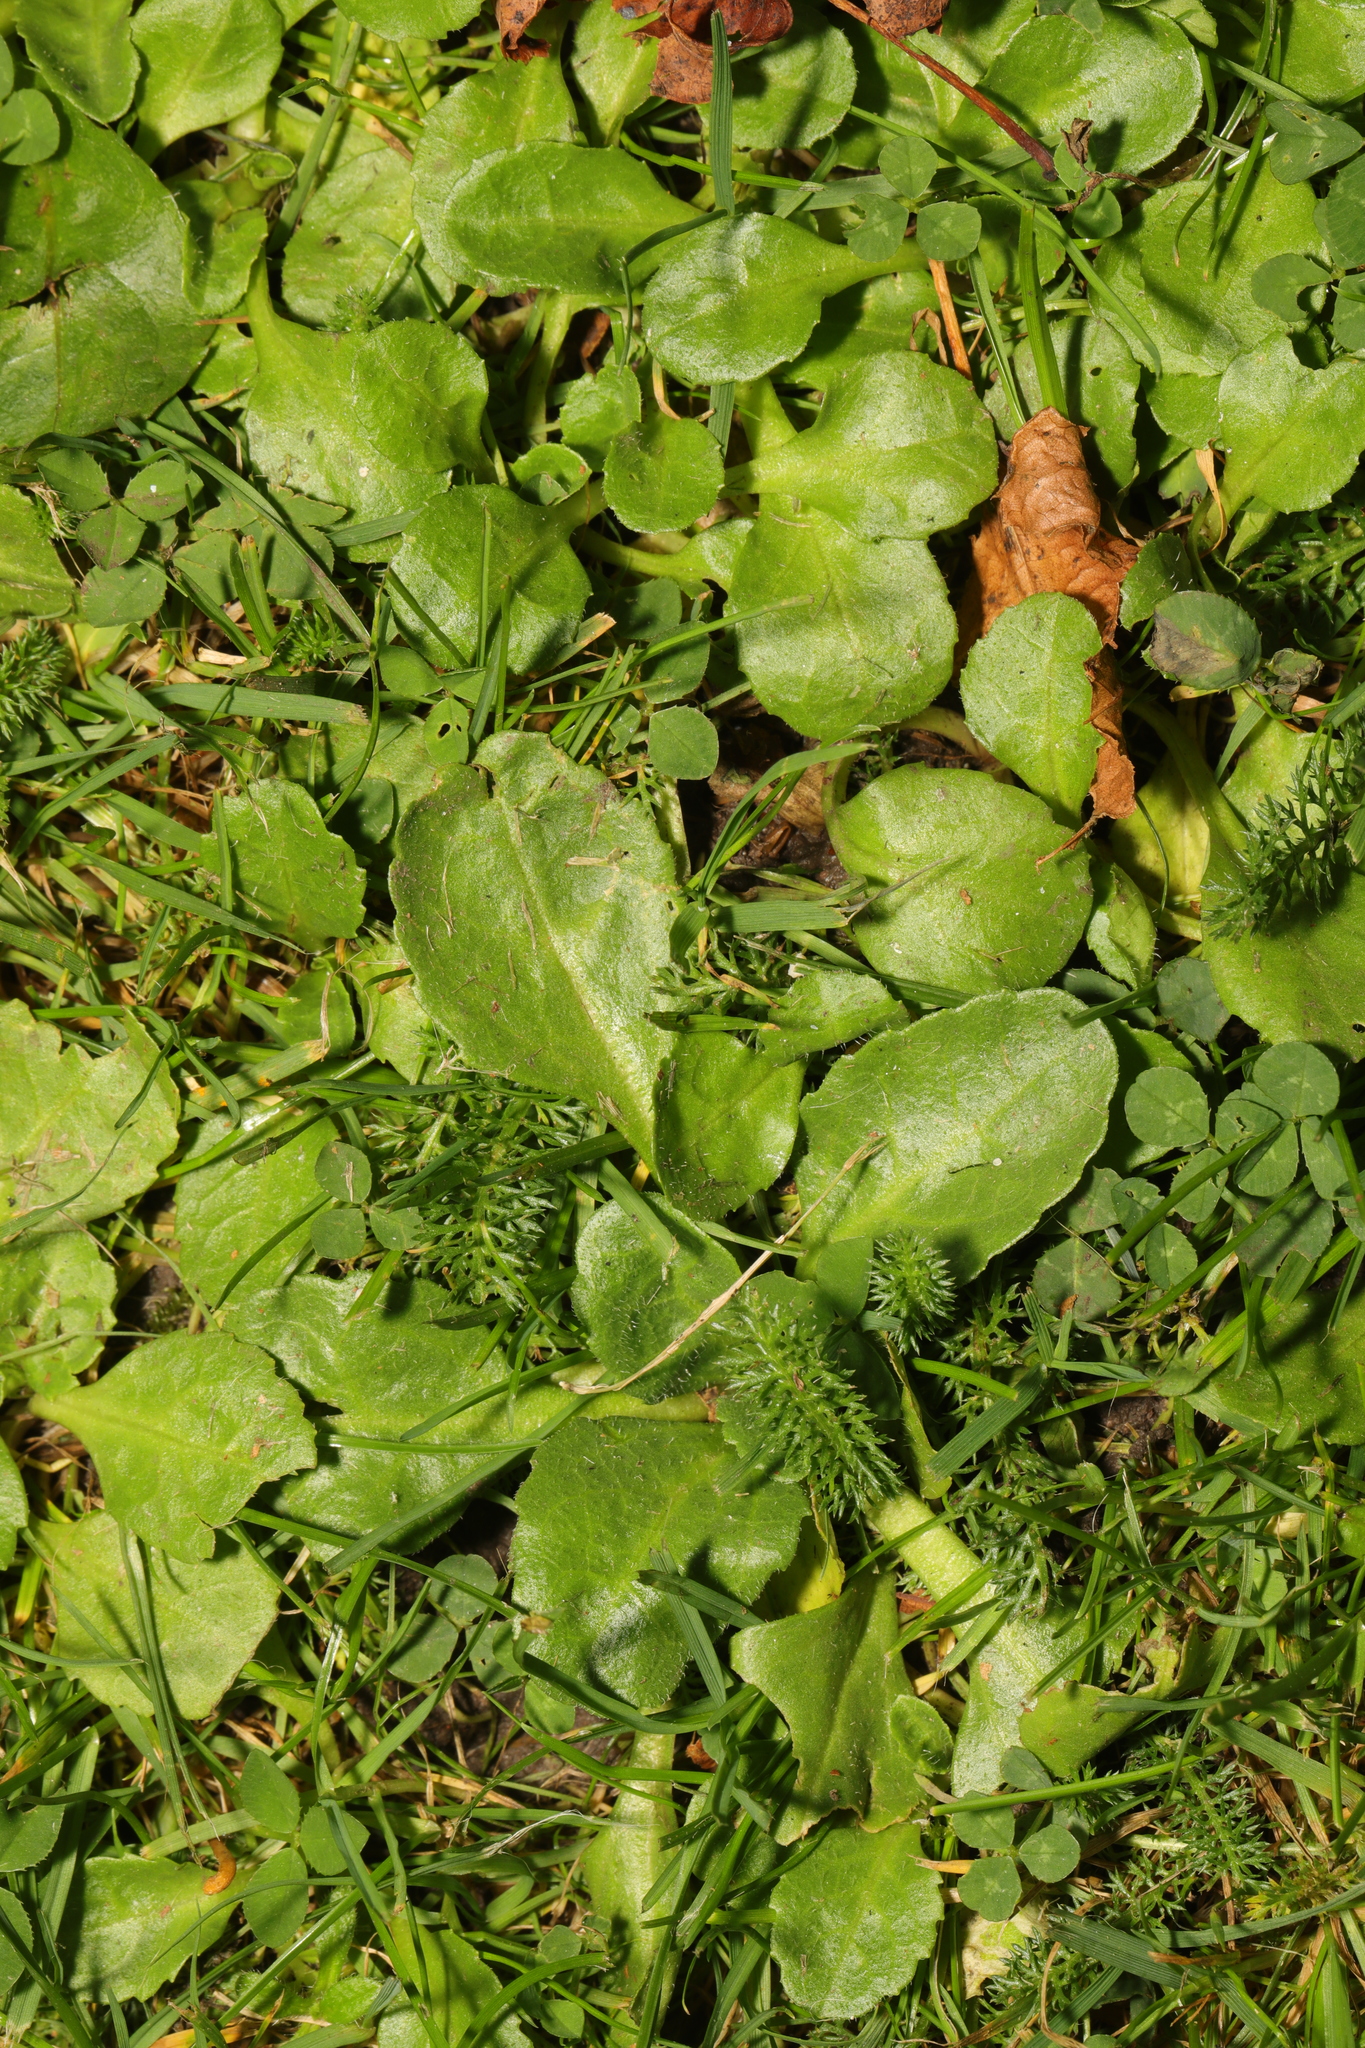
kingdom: Plantae
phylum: Tracheophyta
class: Magnoliopsida
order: Asterales
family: Asteraceae
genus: Bellis
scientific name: Bellis perennis
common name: Lawndaisy
